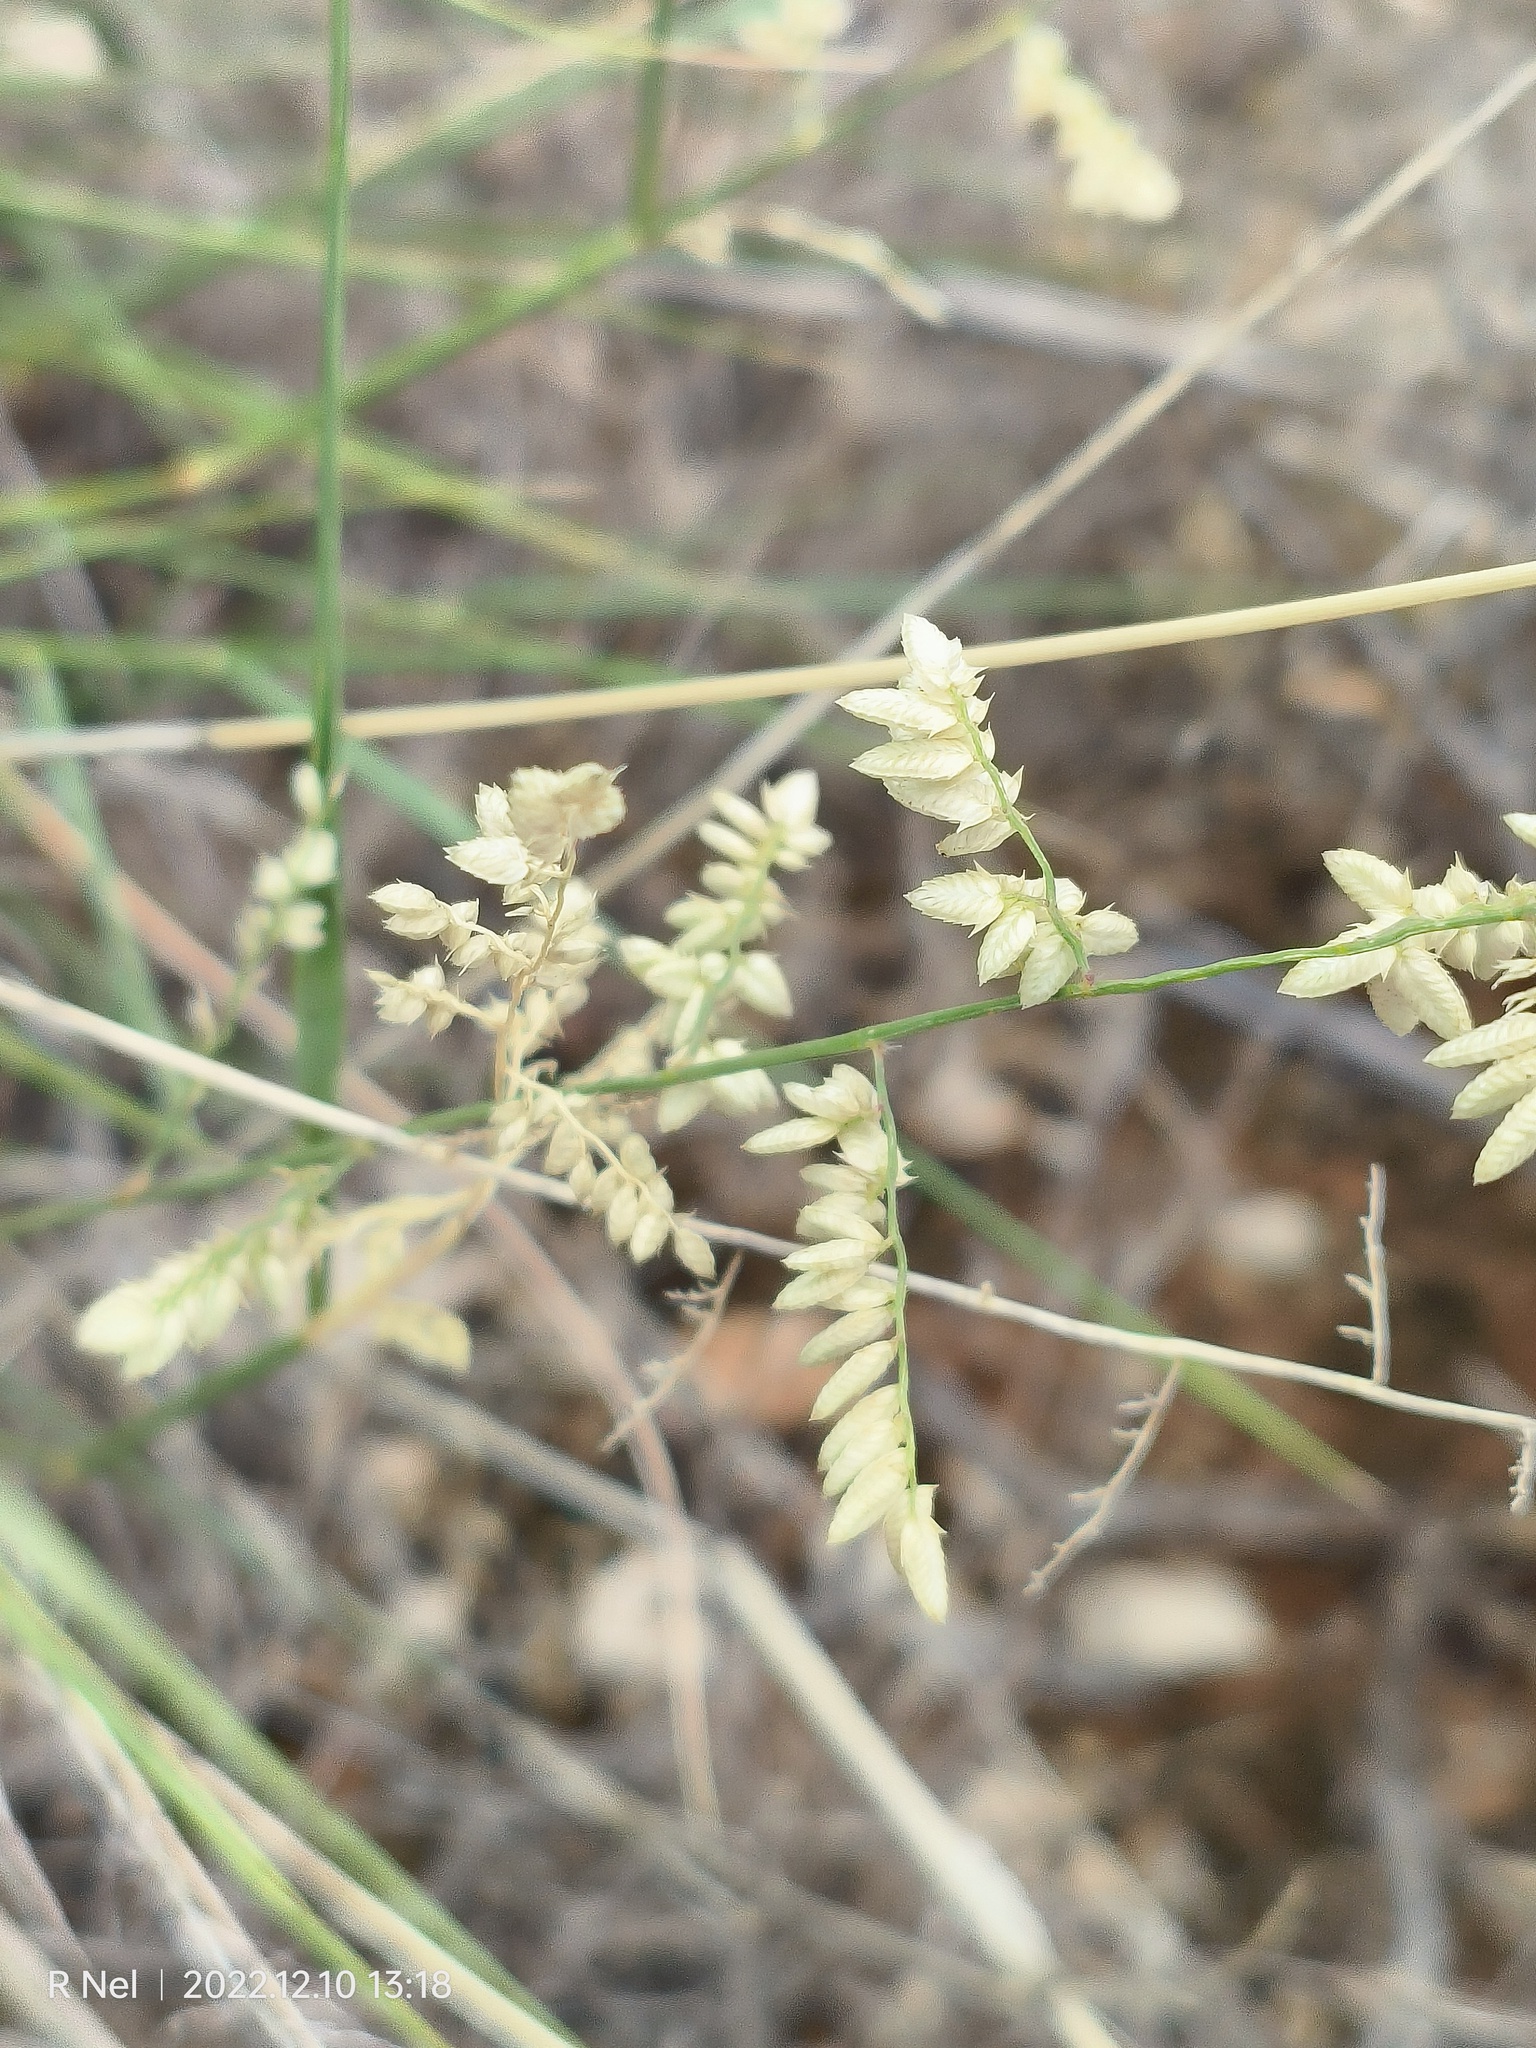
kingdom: Plantae
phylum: Tracheophyta
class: Liliopsida
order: Poales
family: Poaceae
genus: Eragrostis
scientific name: Eragrostis echinochloidea
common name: African lovegrass
